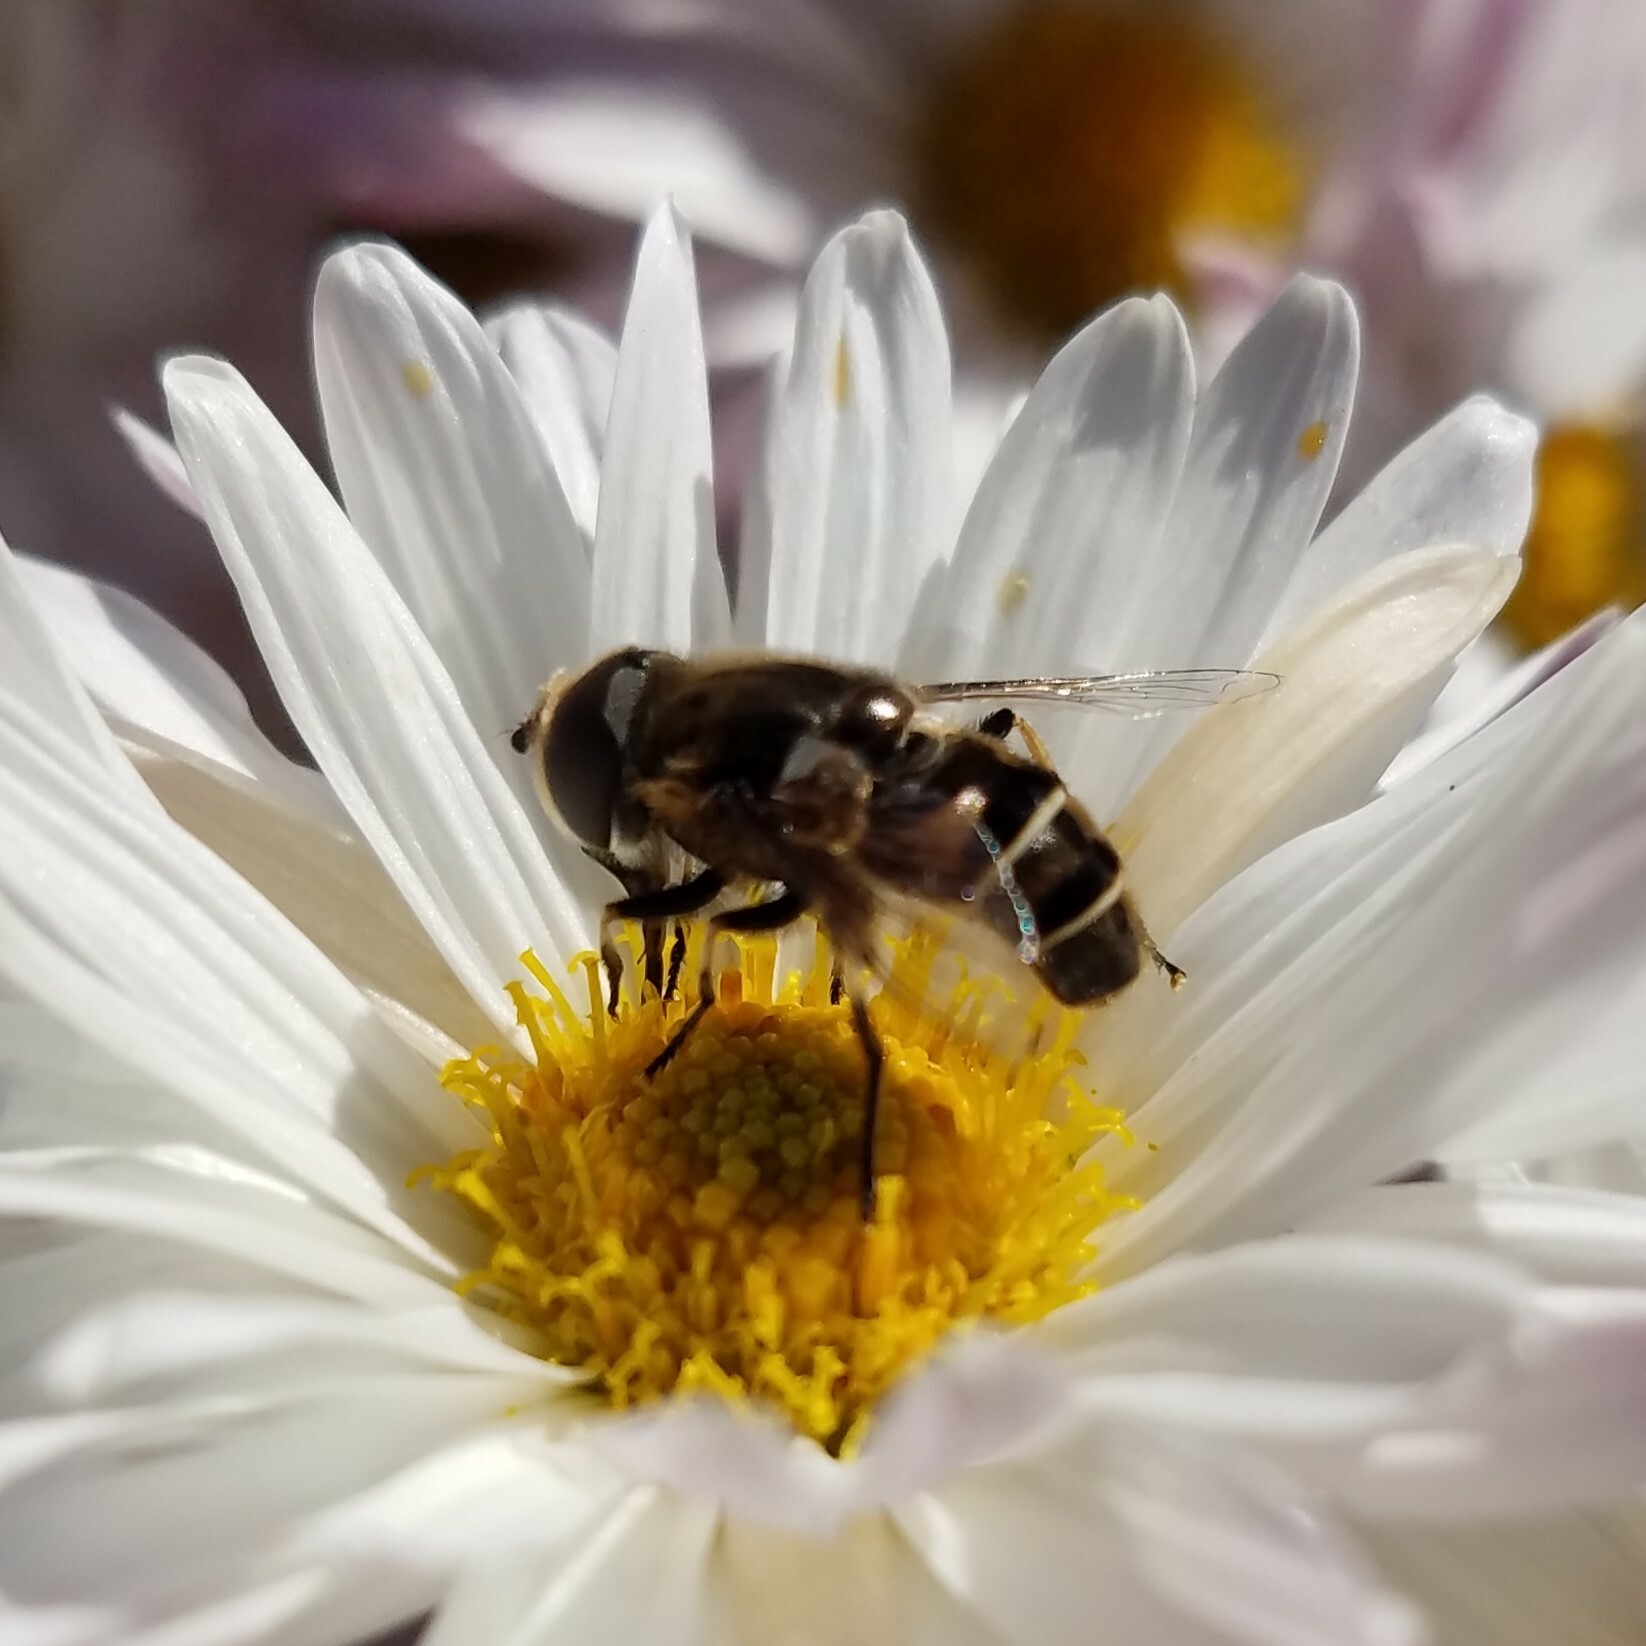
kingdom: Animalia
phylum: Arthropoda
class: Insecta
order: Diptera
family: Syrphidae
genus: Eristalis
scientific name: Eristalis dimidiata
